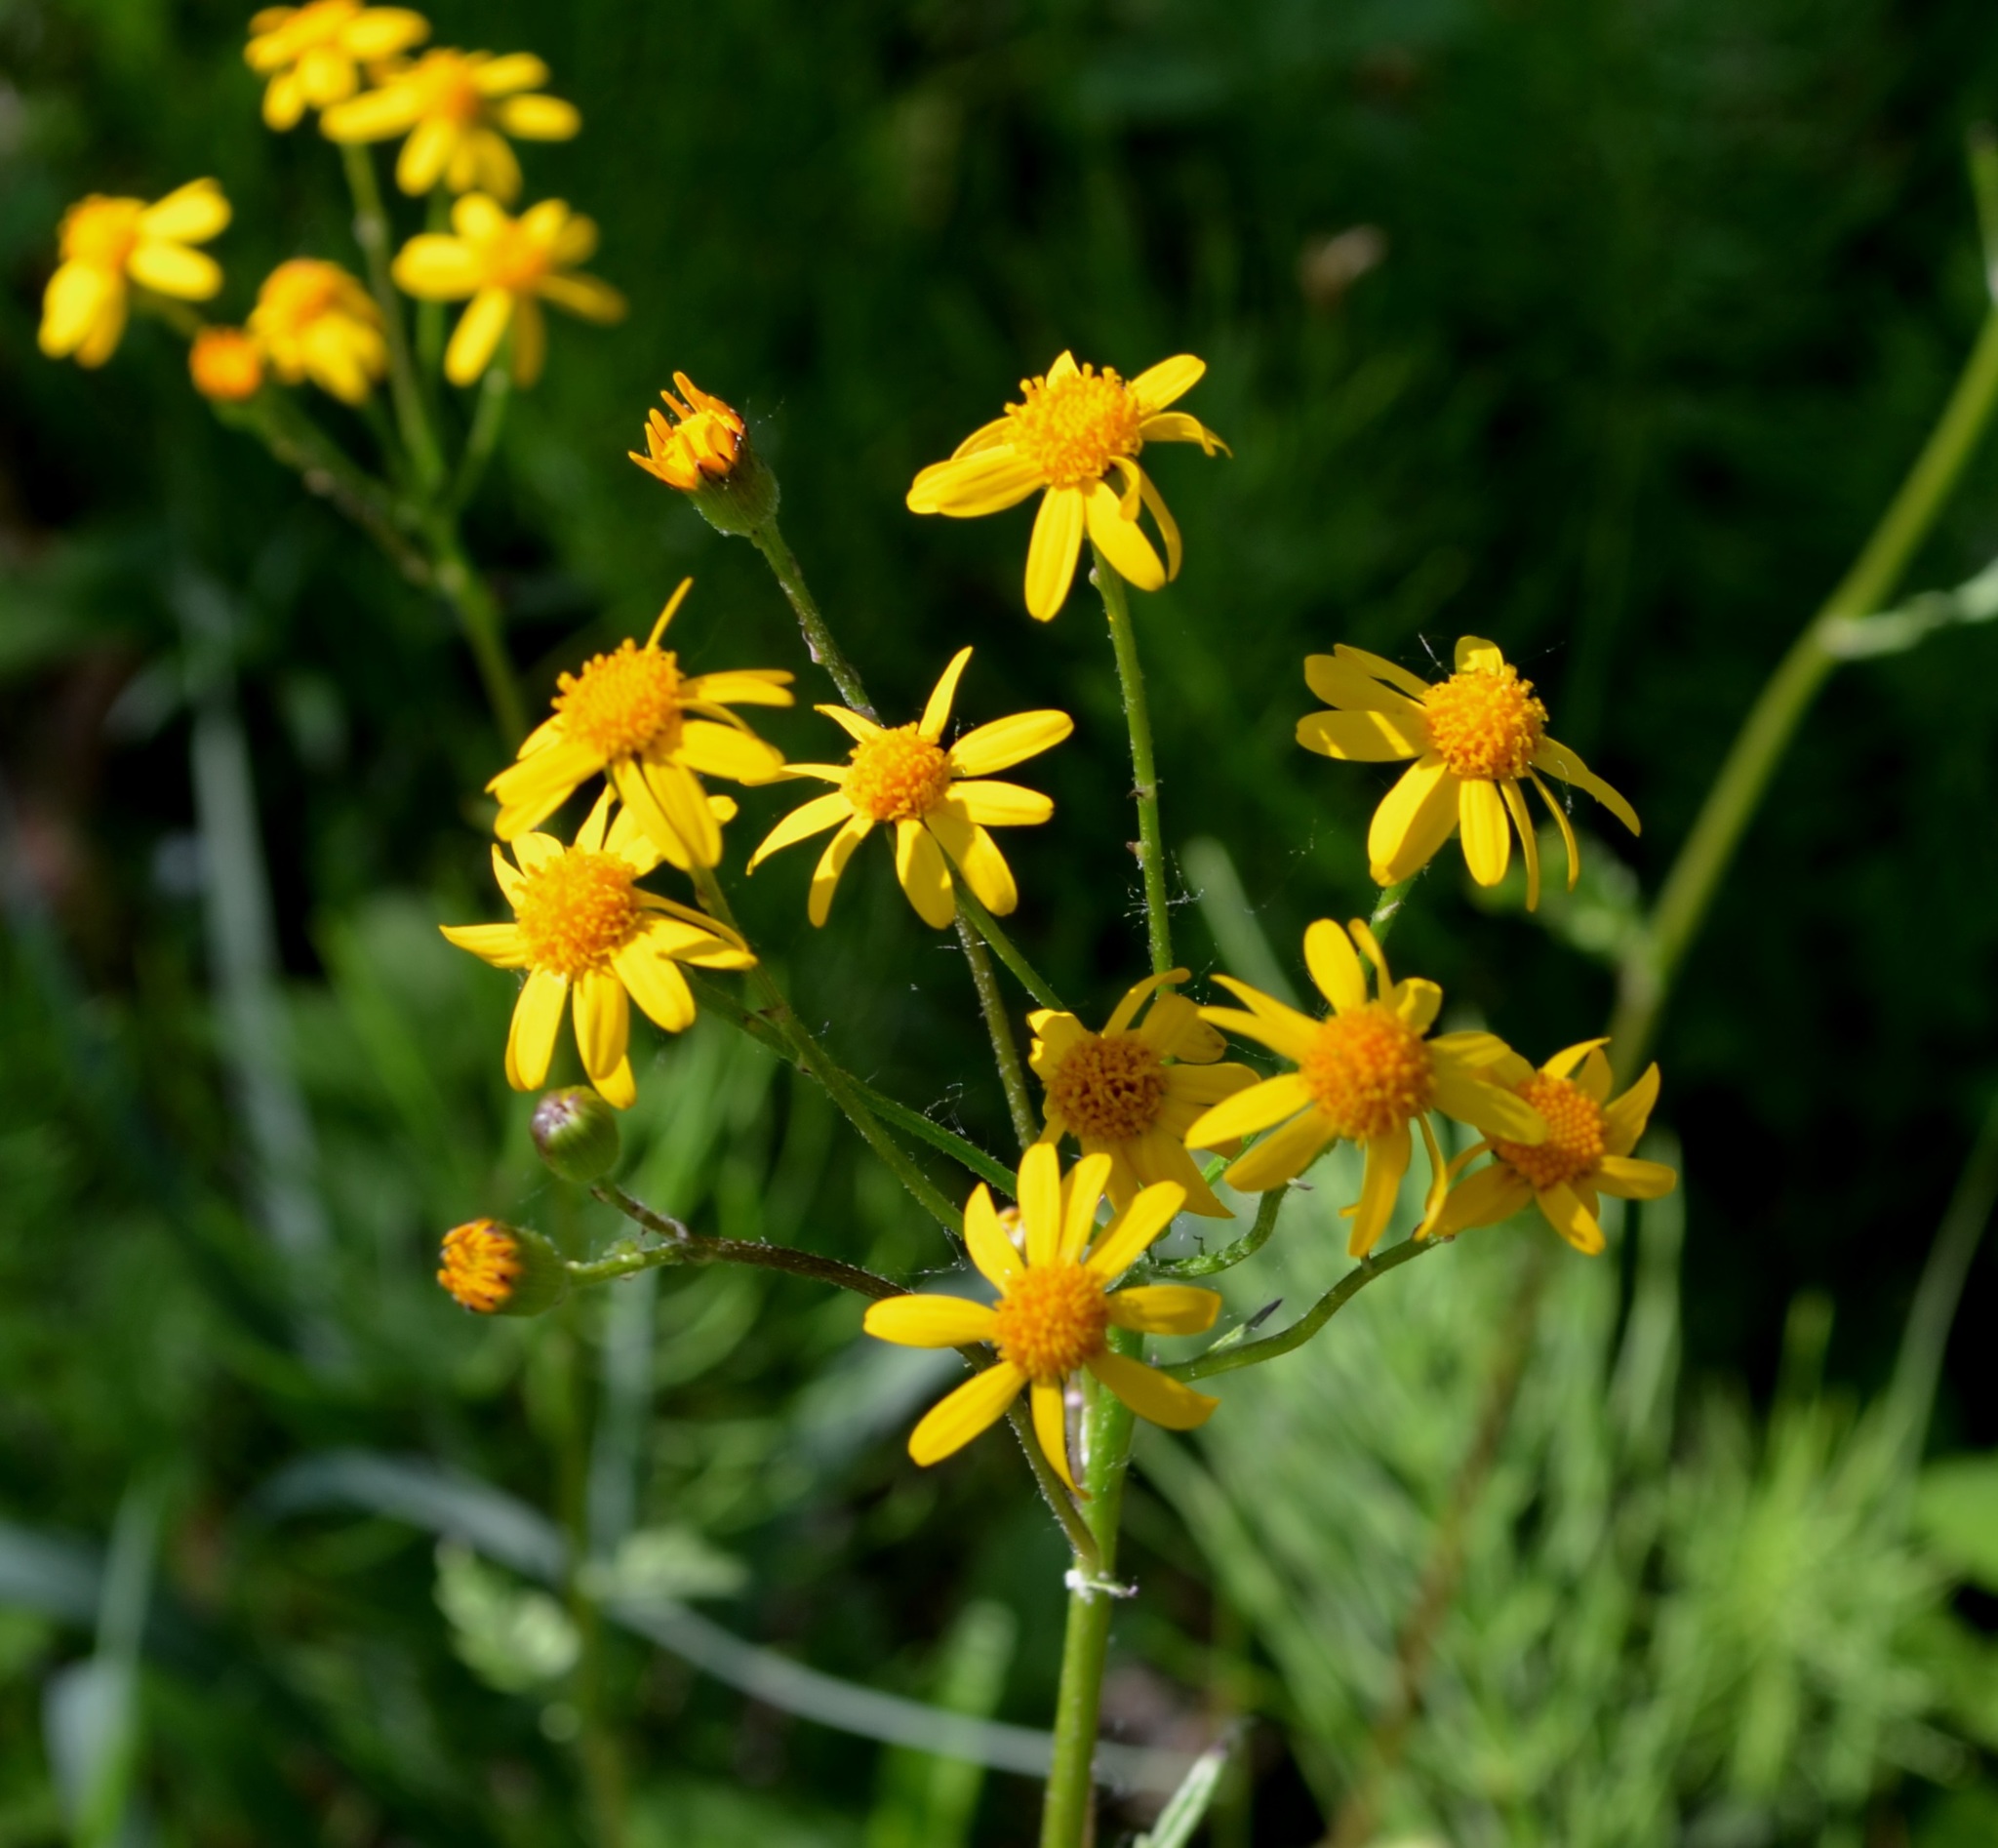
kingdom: Plantae
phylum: Tracheophyta
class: Magnoliopsida
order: Asterales
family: Asteraceae
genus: Packera
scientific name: Packera aurea
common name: Golden groundsel
